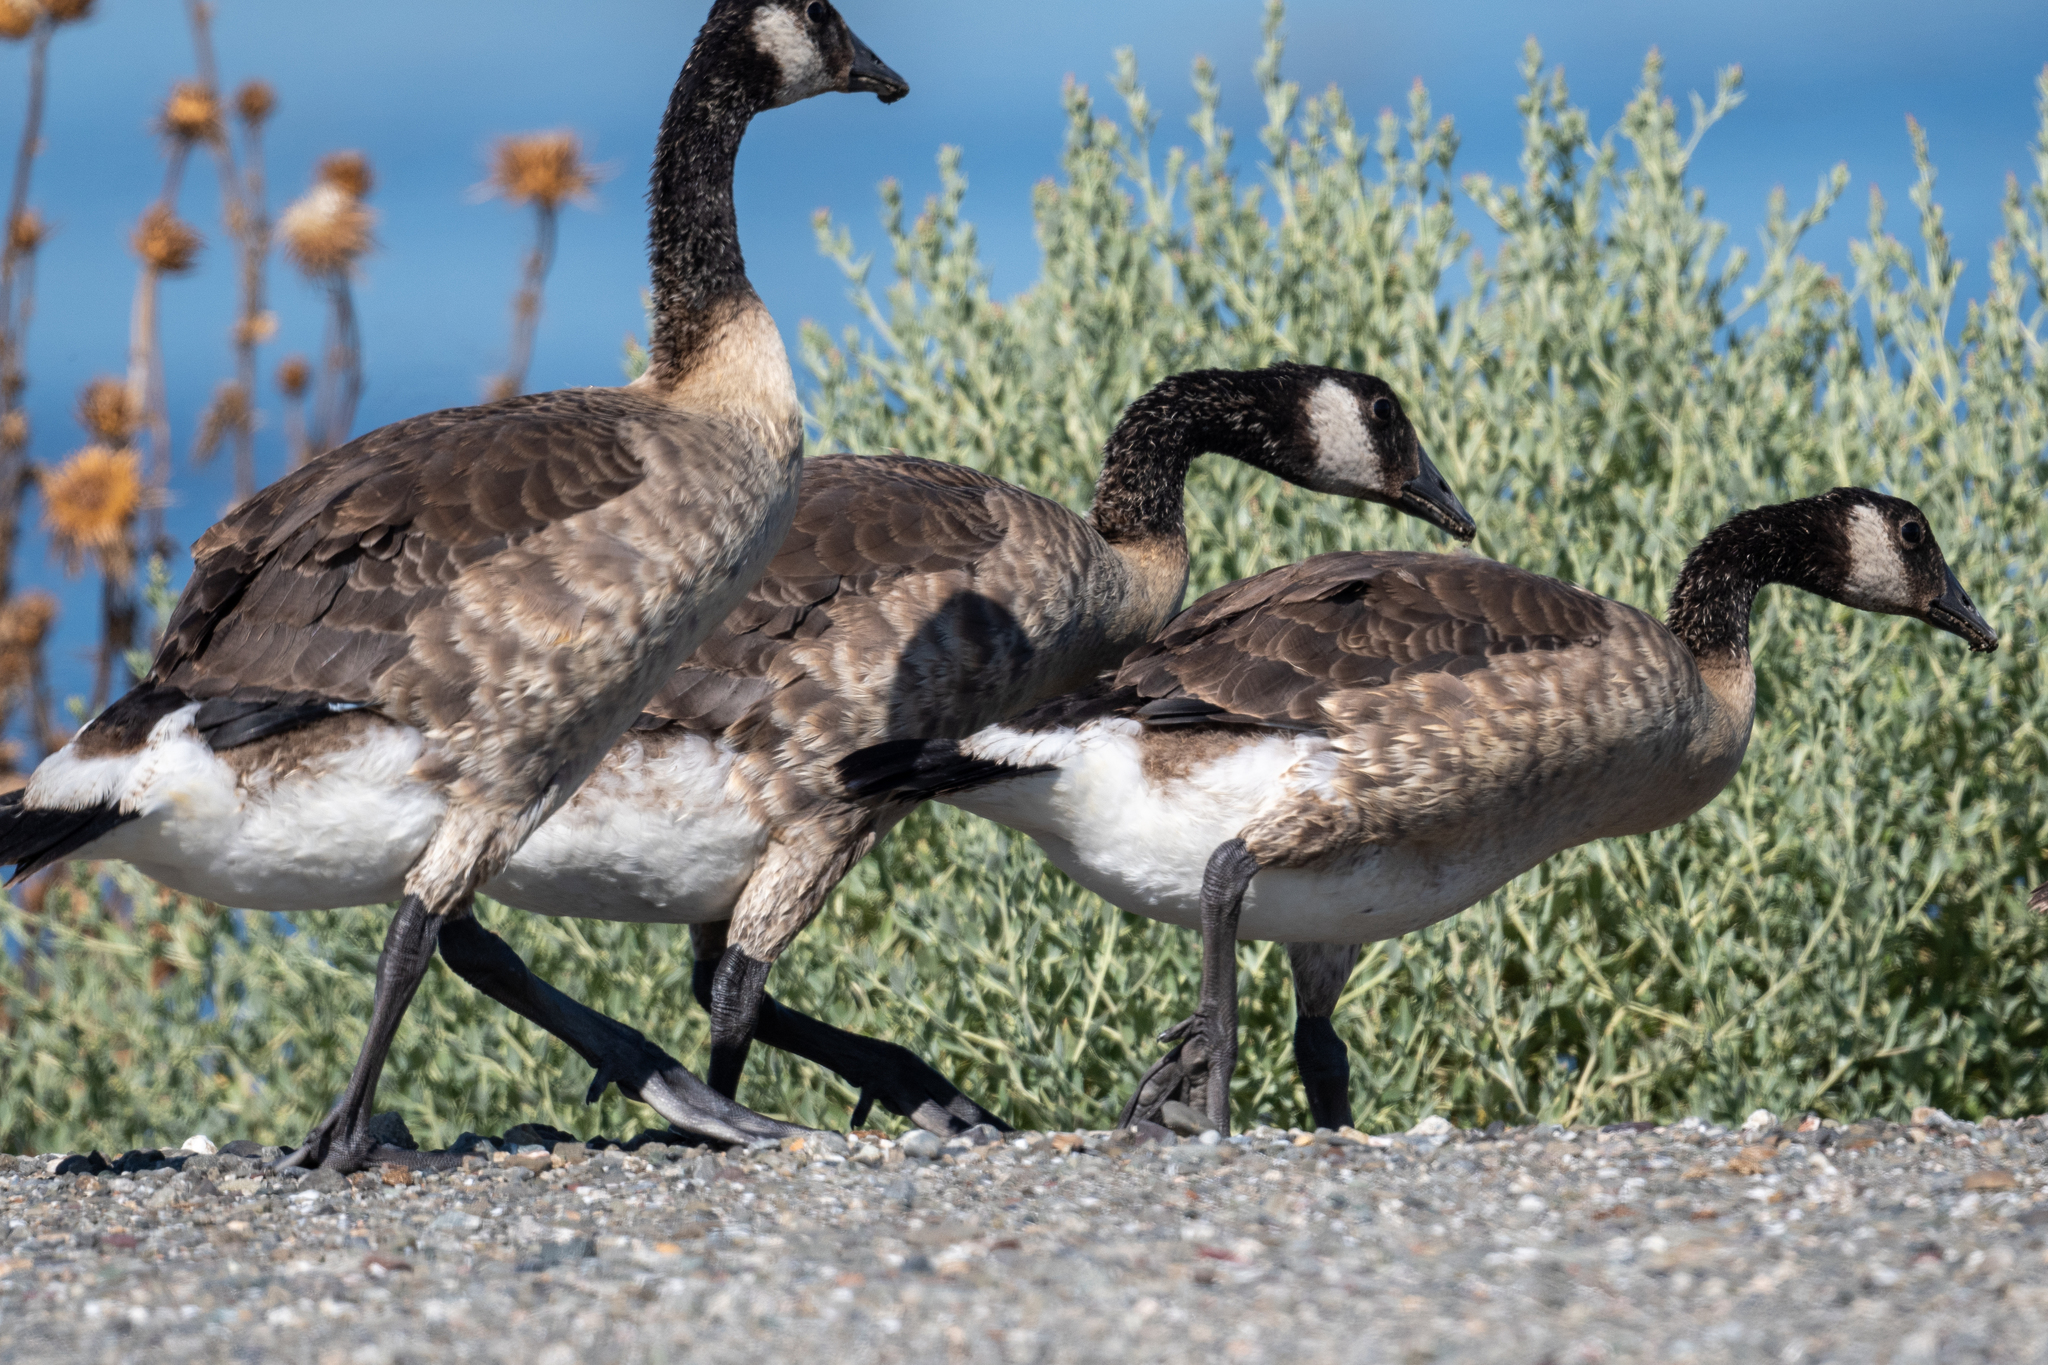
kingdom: Animalia
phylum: Chordata
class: Aves
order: Anseriformes
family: Anatidae
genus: Branta
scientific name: Branta canadensis
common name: Canada goose
